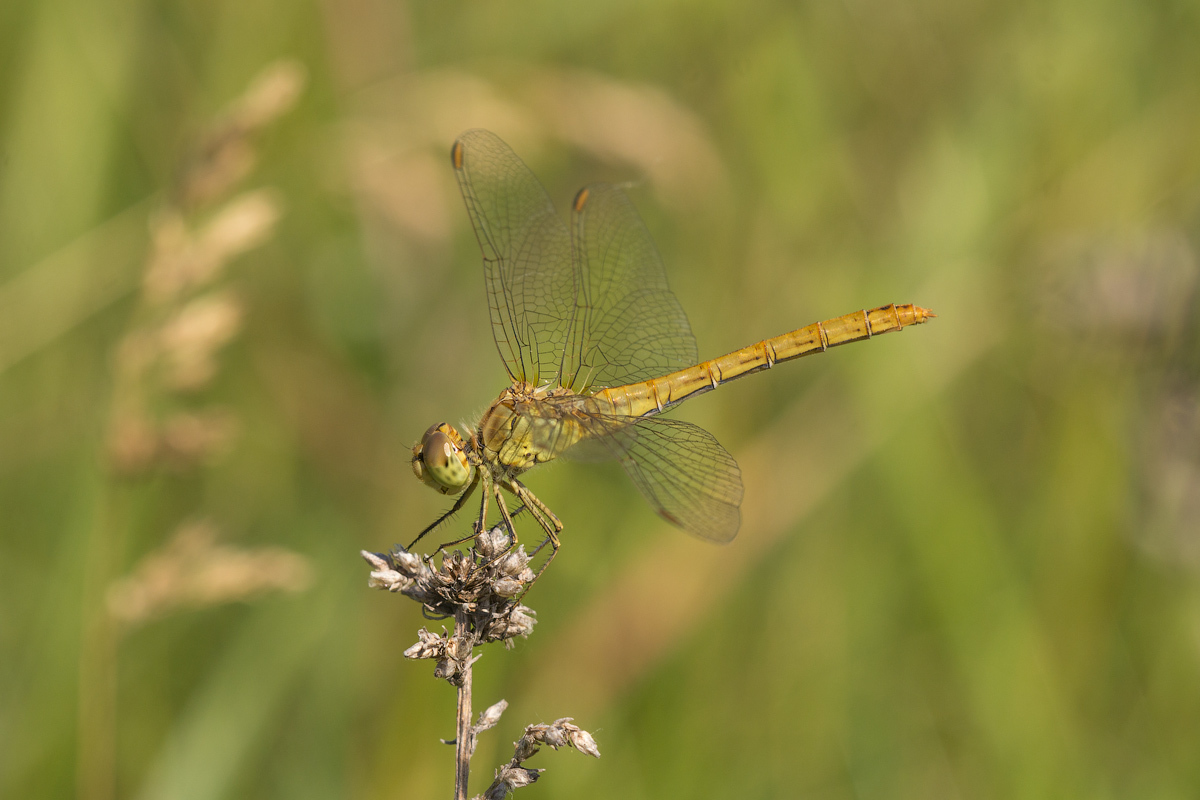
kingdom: Animalia
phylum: Arthropoda
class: Insecta
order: Odonata
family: Libellulidae
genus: Sympetrum
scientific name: Sympetrum meridionale
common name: Southern darter
